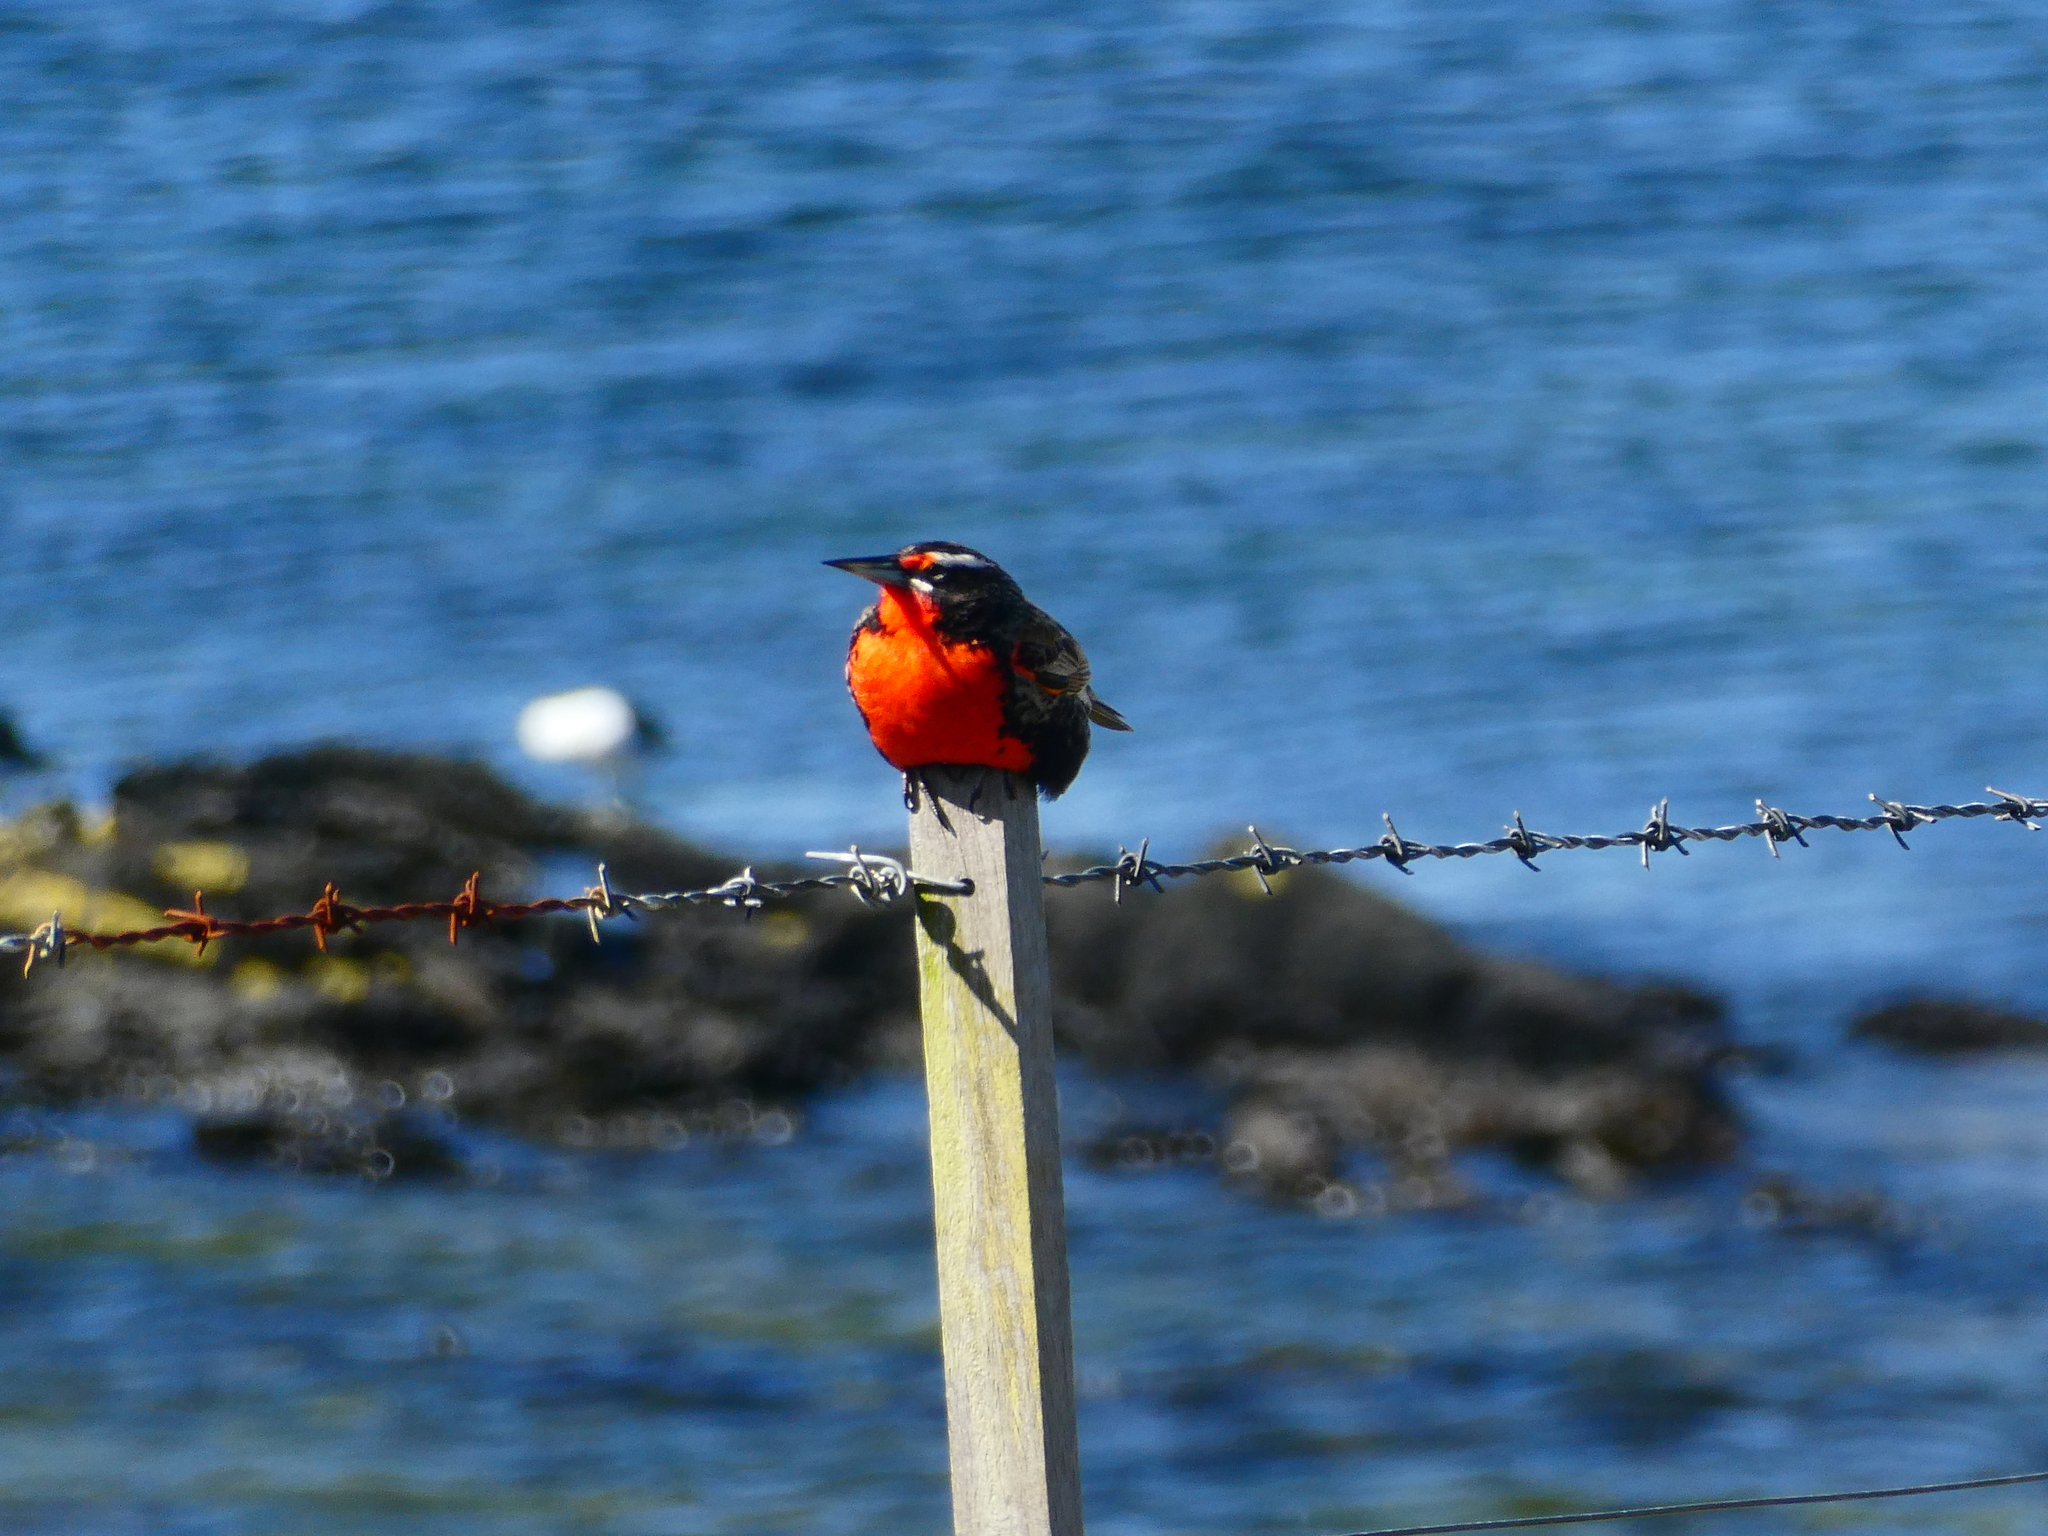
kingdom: Animalia
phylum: Chordata
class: Aves
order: Passeriformes
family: Icteridae
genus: Sturnella
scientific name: Sturnella loyca
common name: Long-tailed meadowlark
